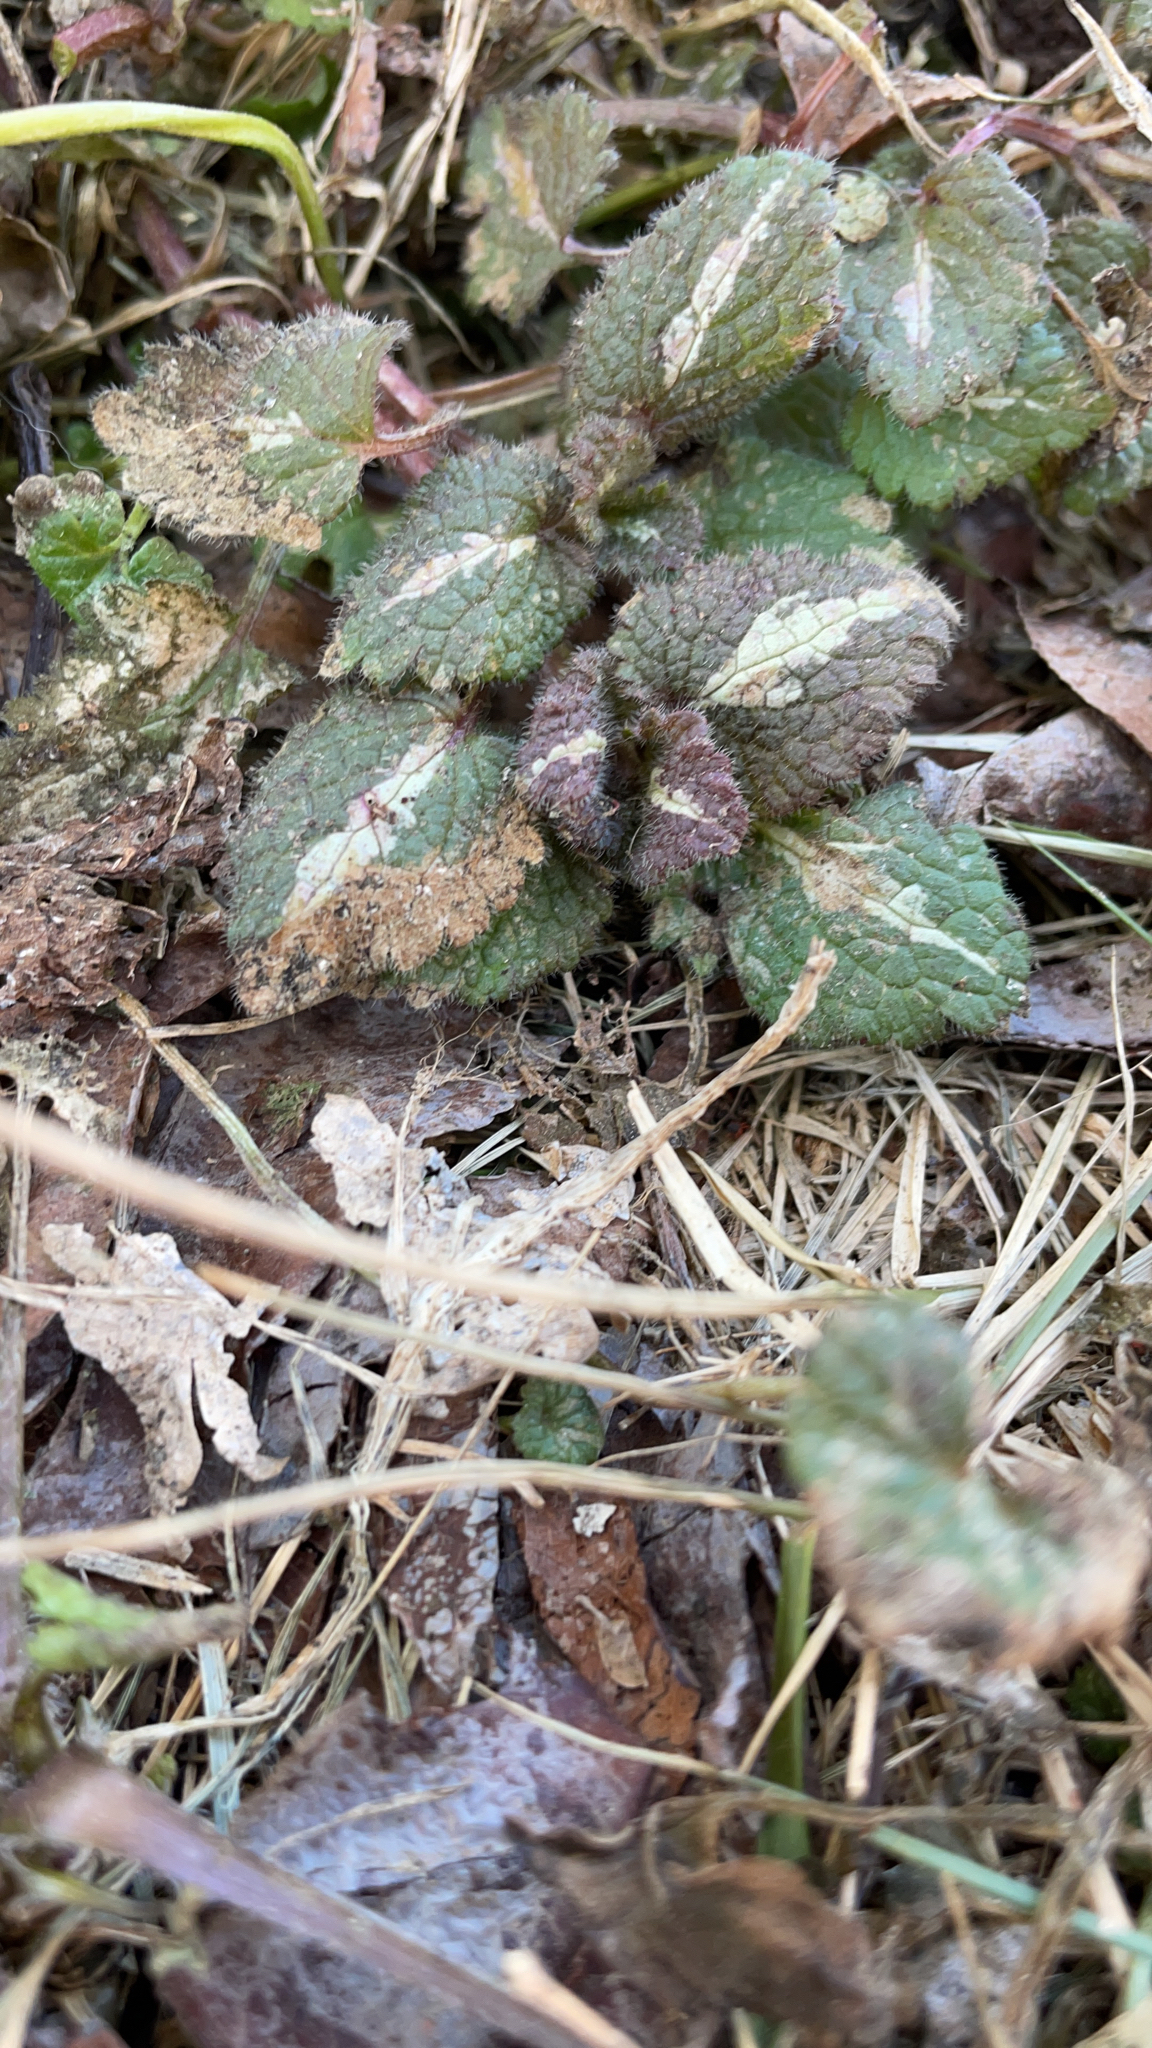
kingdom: Plantae
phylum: Tracheophyta
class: Magnoliopsida
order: Lamiales
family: Lamiaceae
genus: Lamium
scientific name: Lamium maculatum
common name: Spotted dead-nettle
